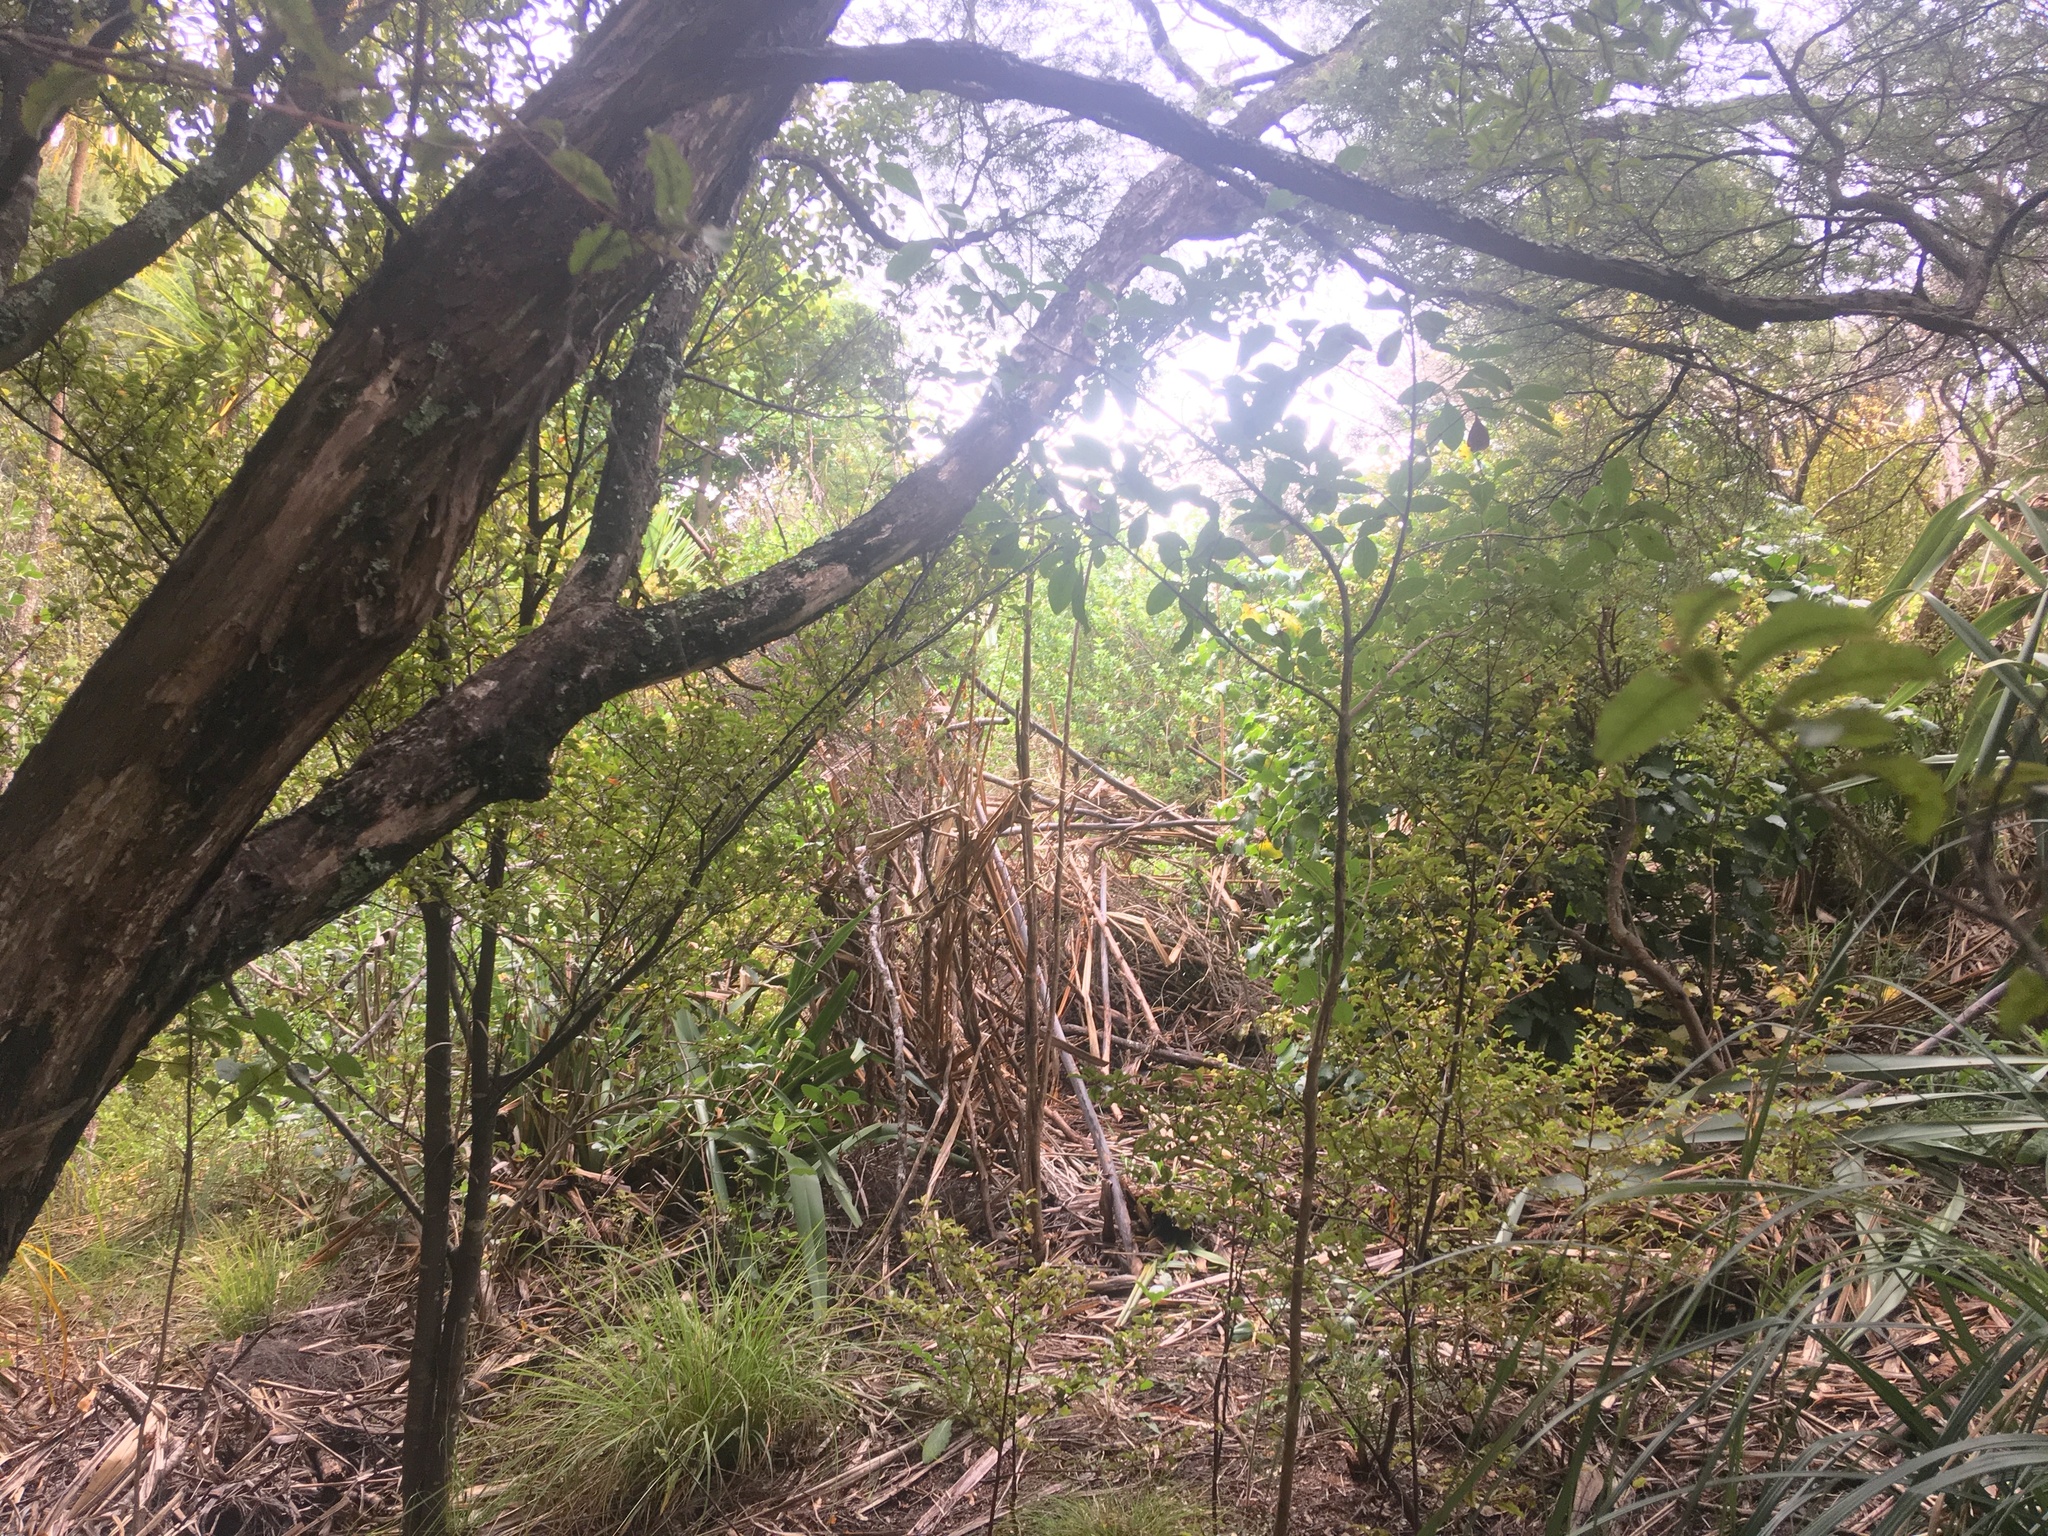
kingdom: Plantae
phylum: Tracheophyta
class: Magnoliopsida
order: Ericales
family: Primulaceae
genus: Myrsine
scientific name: Myrsine australis
